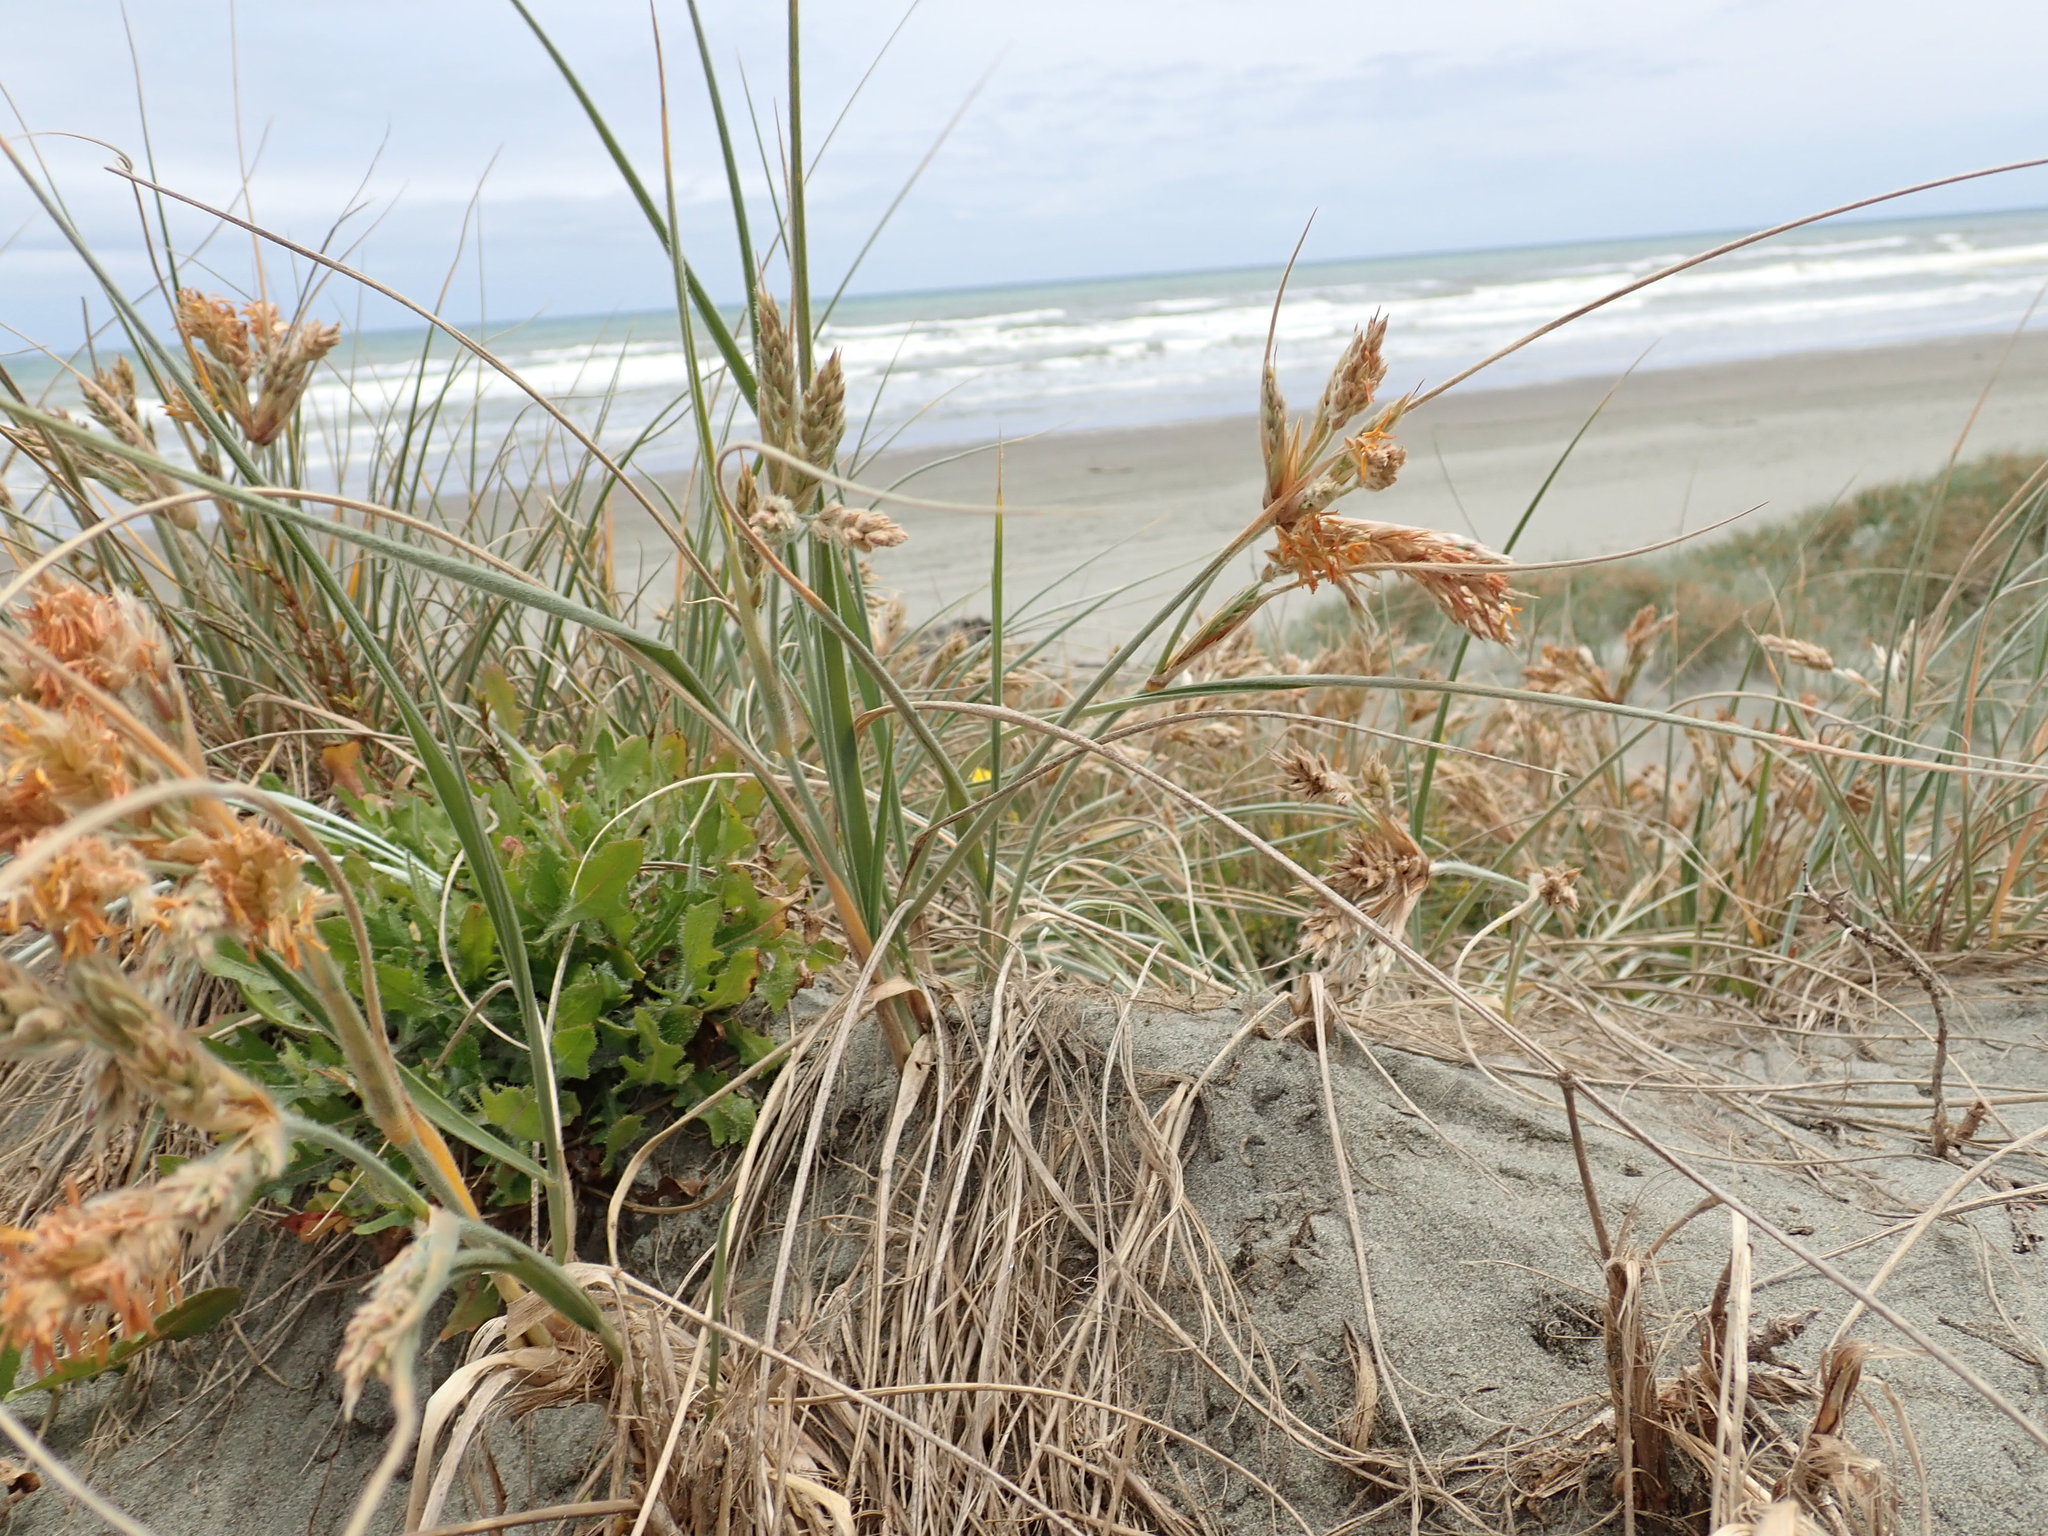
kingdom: Plantae
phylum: Tracheophyta
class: Liliopsida
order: Poales
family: Poaceae
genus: Spinifex
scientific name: Spinifex sericeus
